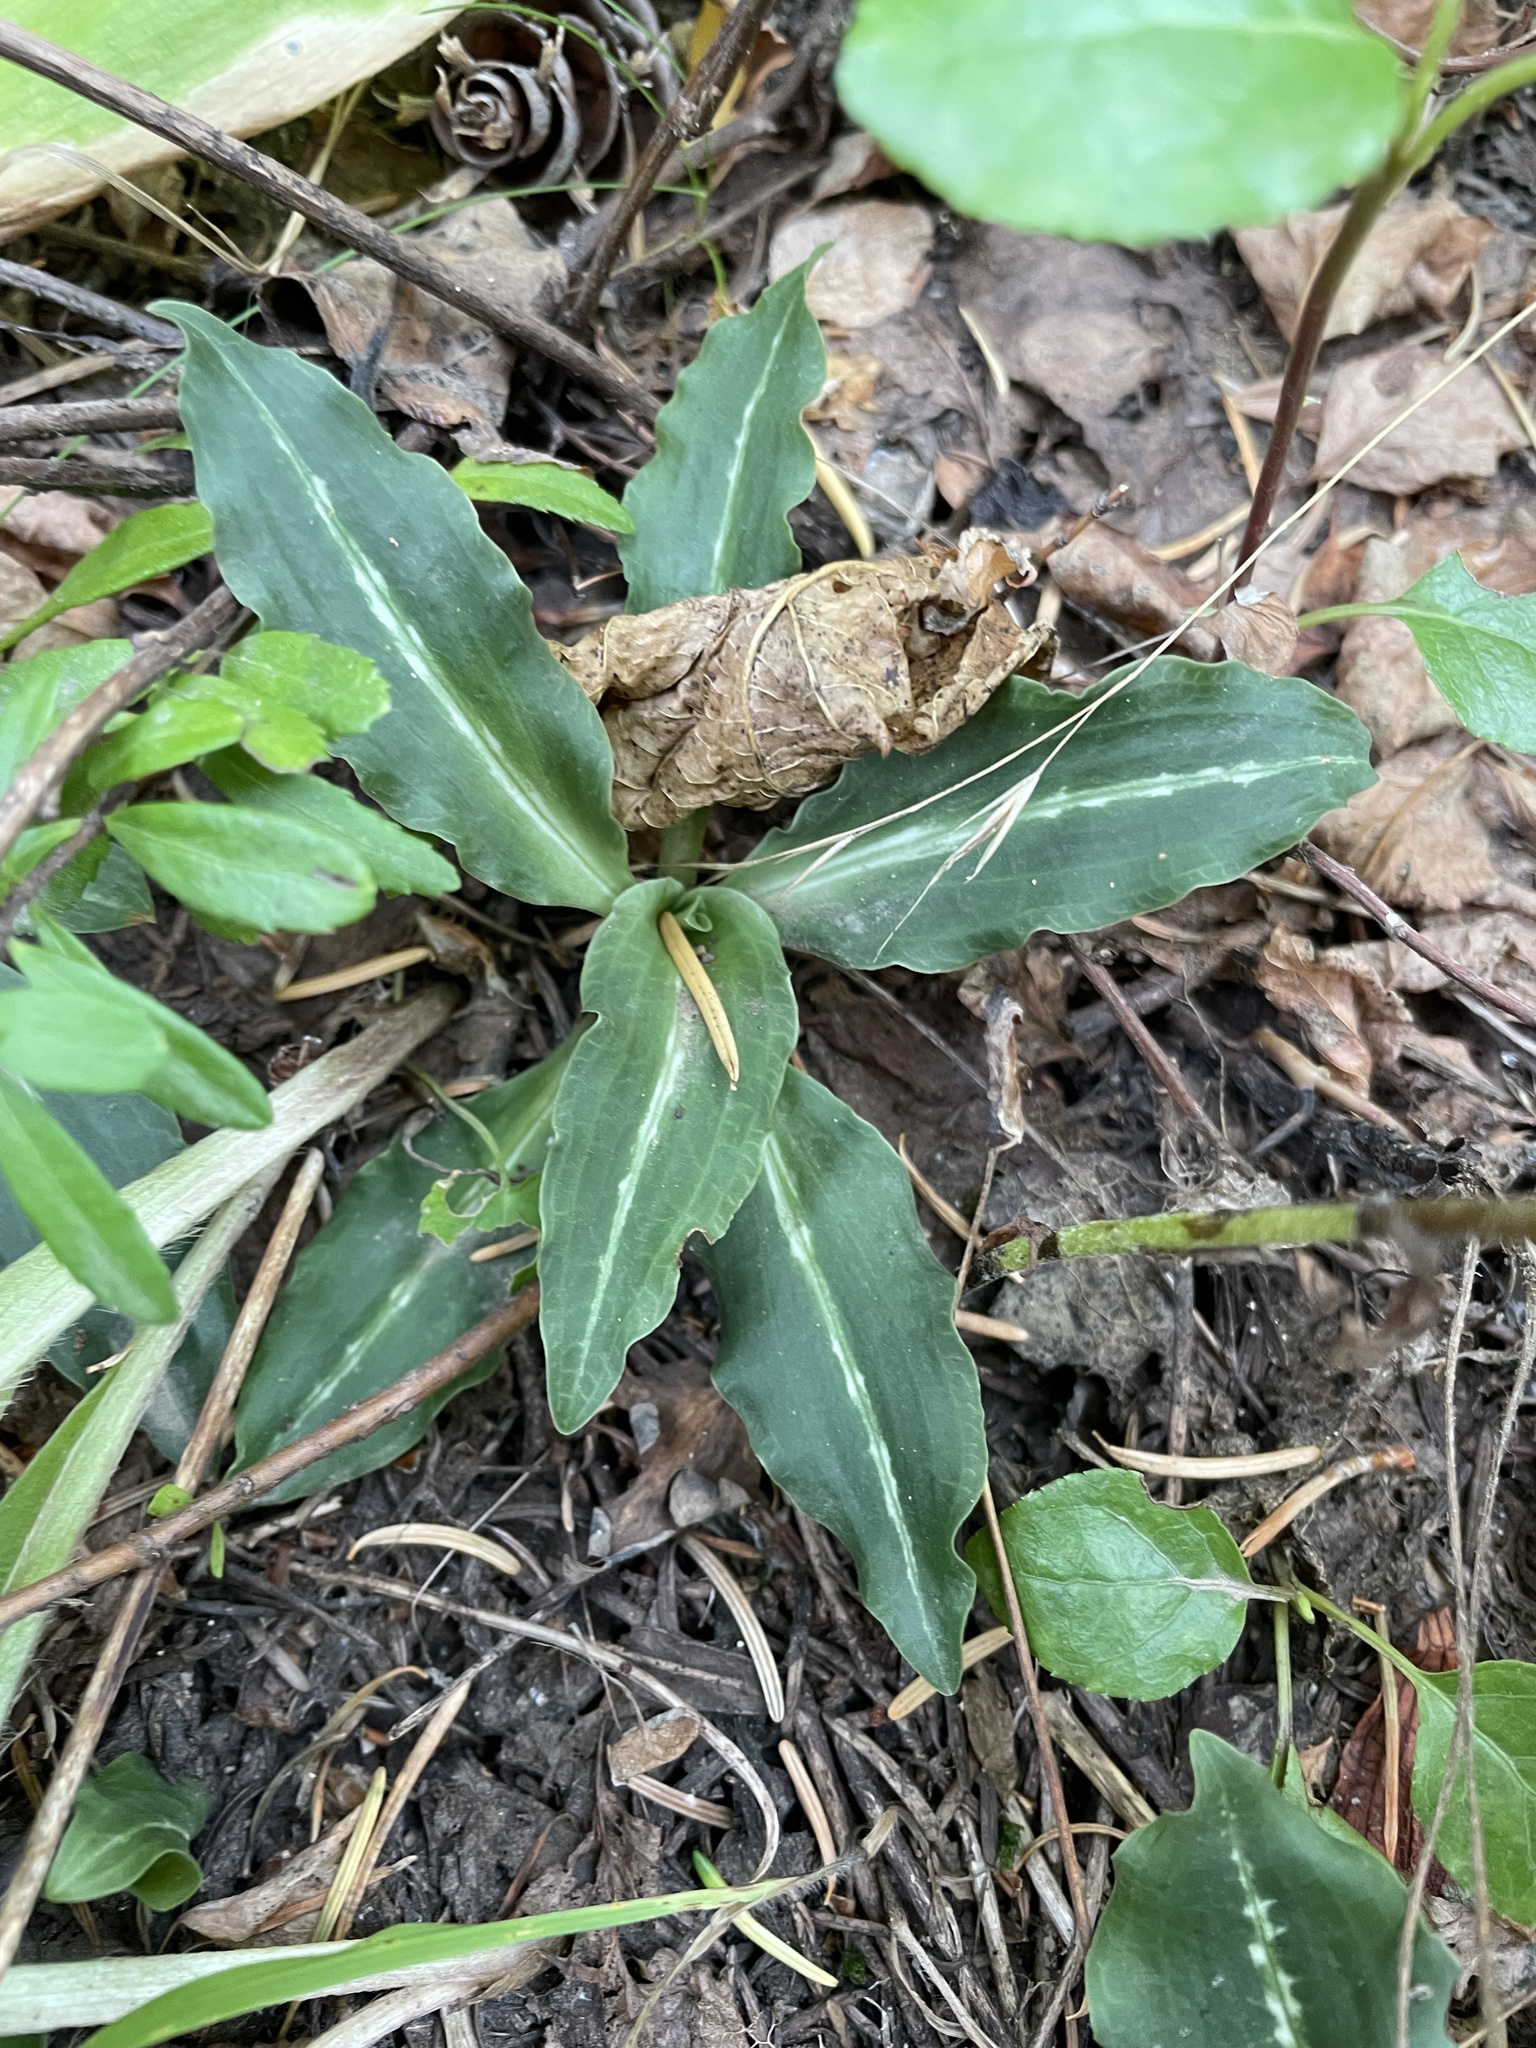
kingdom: Plantae
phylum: Tracheophyta
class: Liliopsida
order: Asparagales
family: Orchidaceae
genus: Goodyera
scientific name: Goodyera oblongifolia
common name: Giant rattlesnake-plantain
